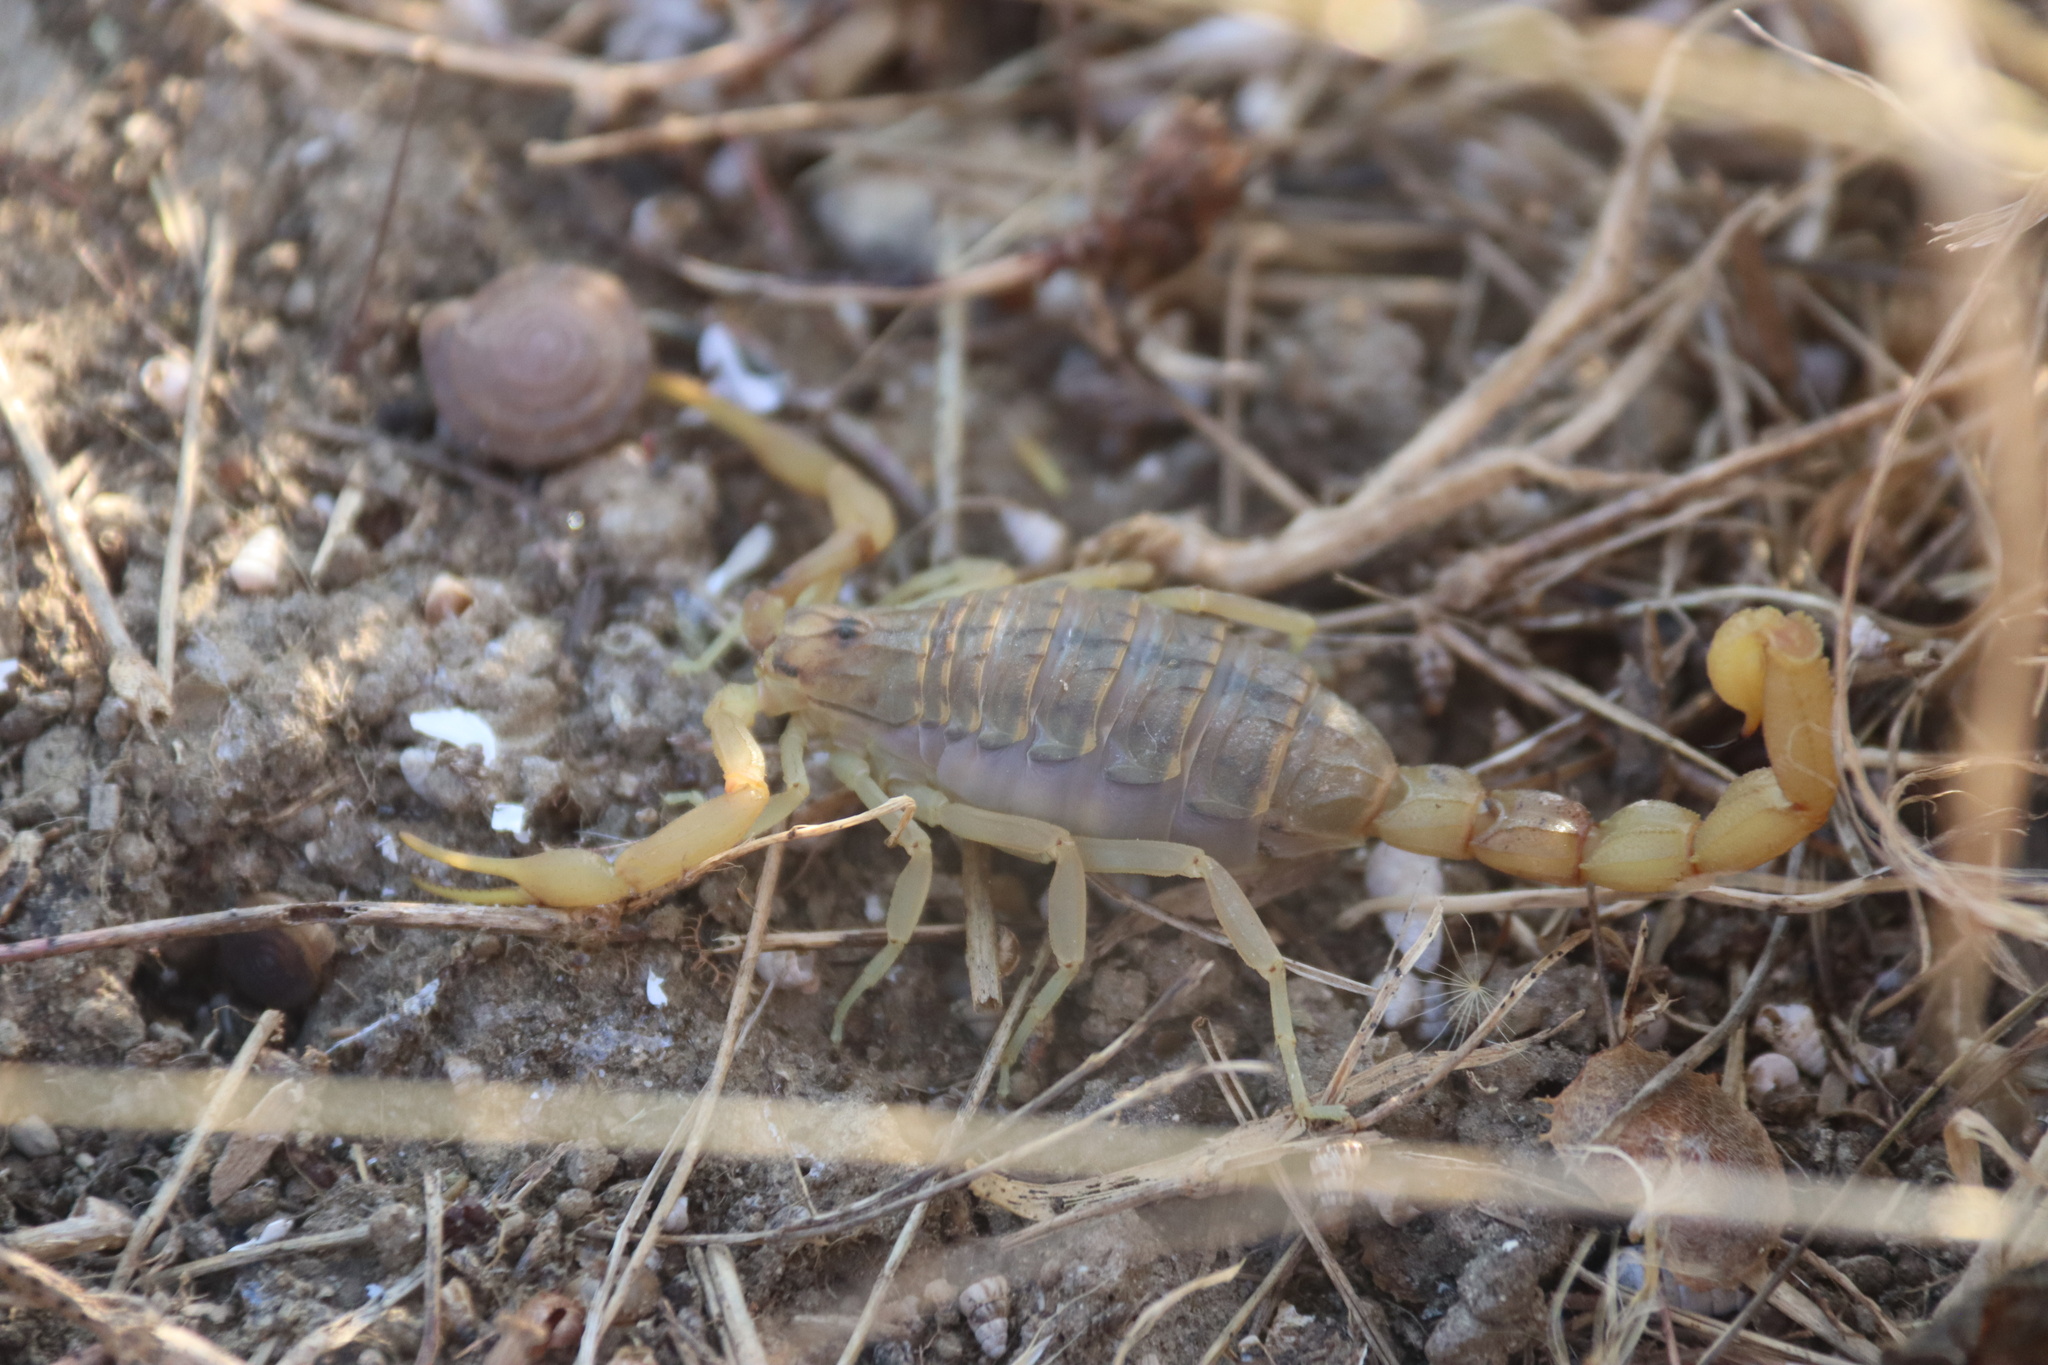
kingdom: Animalia
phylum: Arthropoda
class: Arachnida
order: Scorpiones
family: Buthidae
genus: Aegaeobuthus
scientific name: Aegaeobuthus gibbosus
